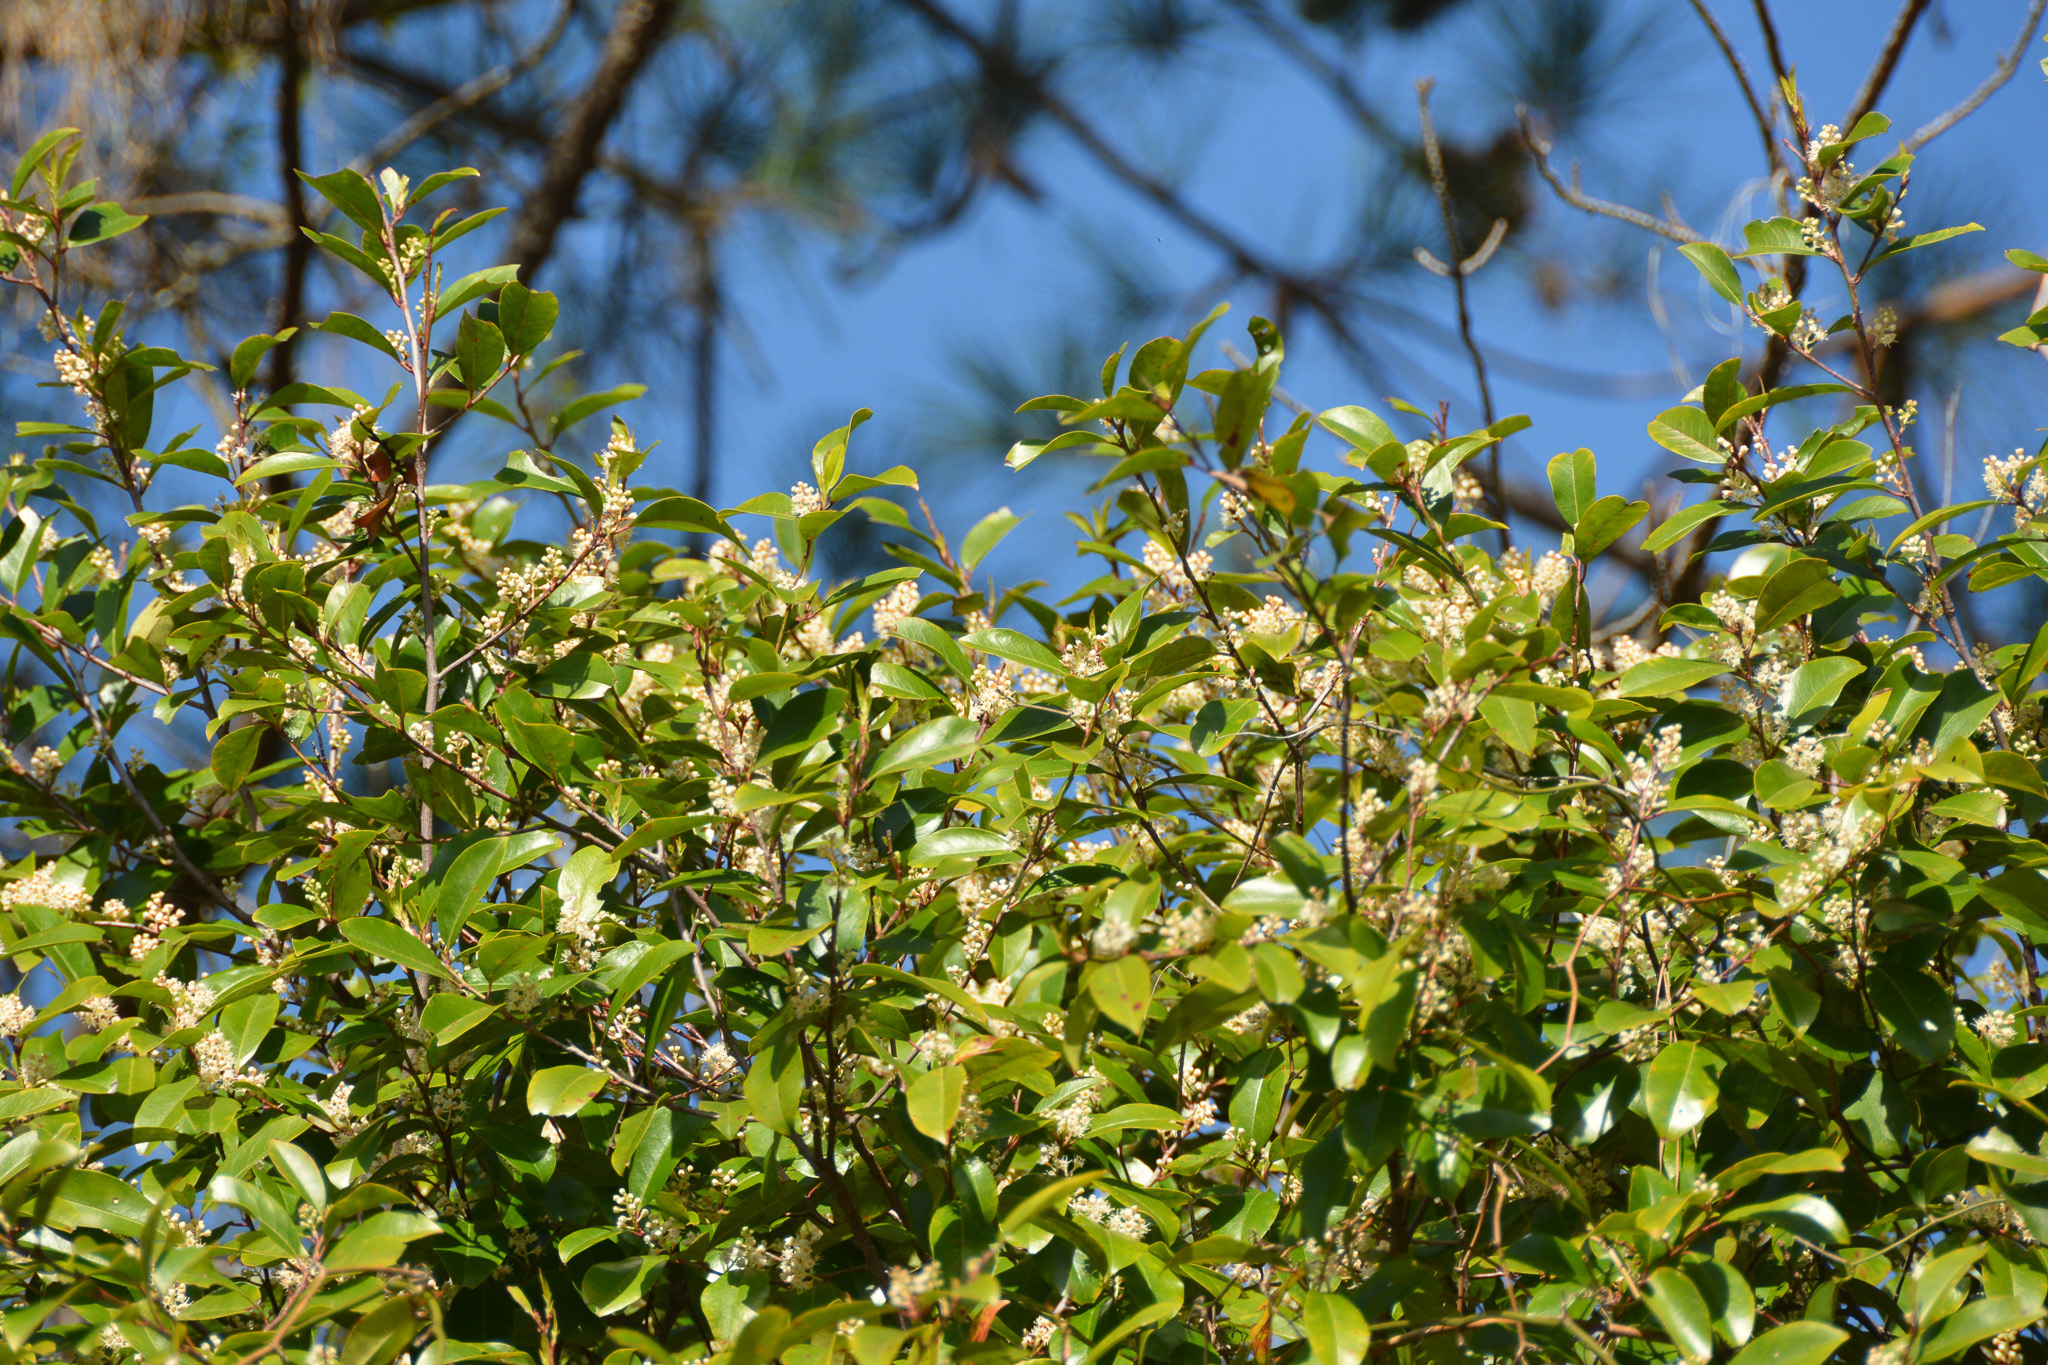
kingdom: Plantae
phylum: Tracheophyta
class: Magnoliopsida
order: Rosales
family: Rosaceae
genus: Prunus
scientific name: Prunus caroliniana
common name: Carolina laurel cherry
